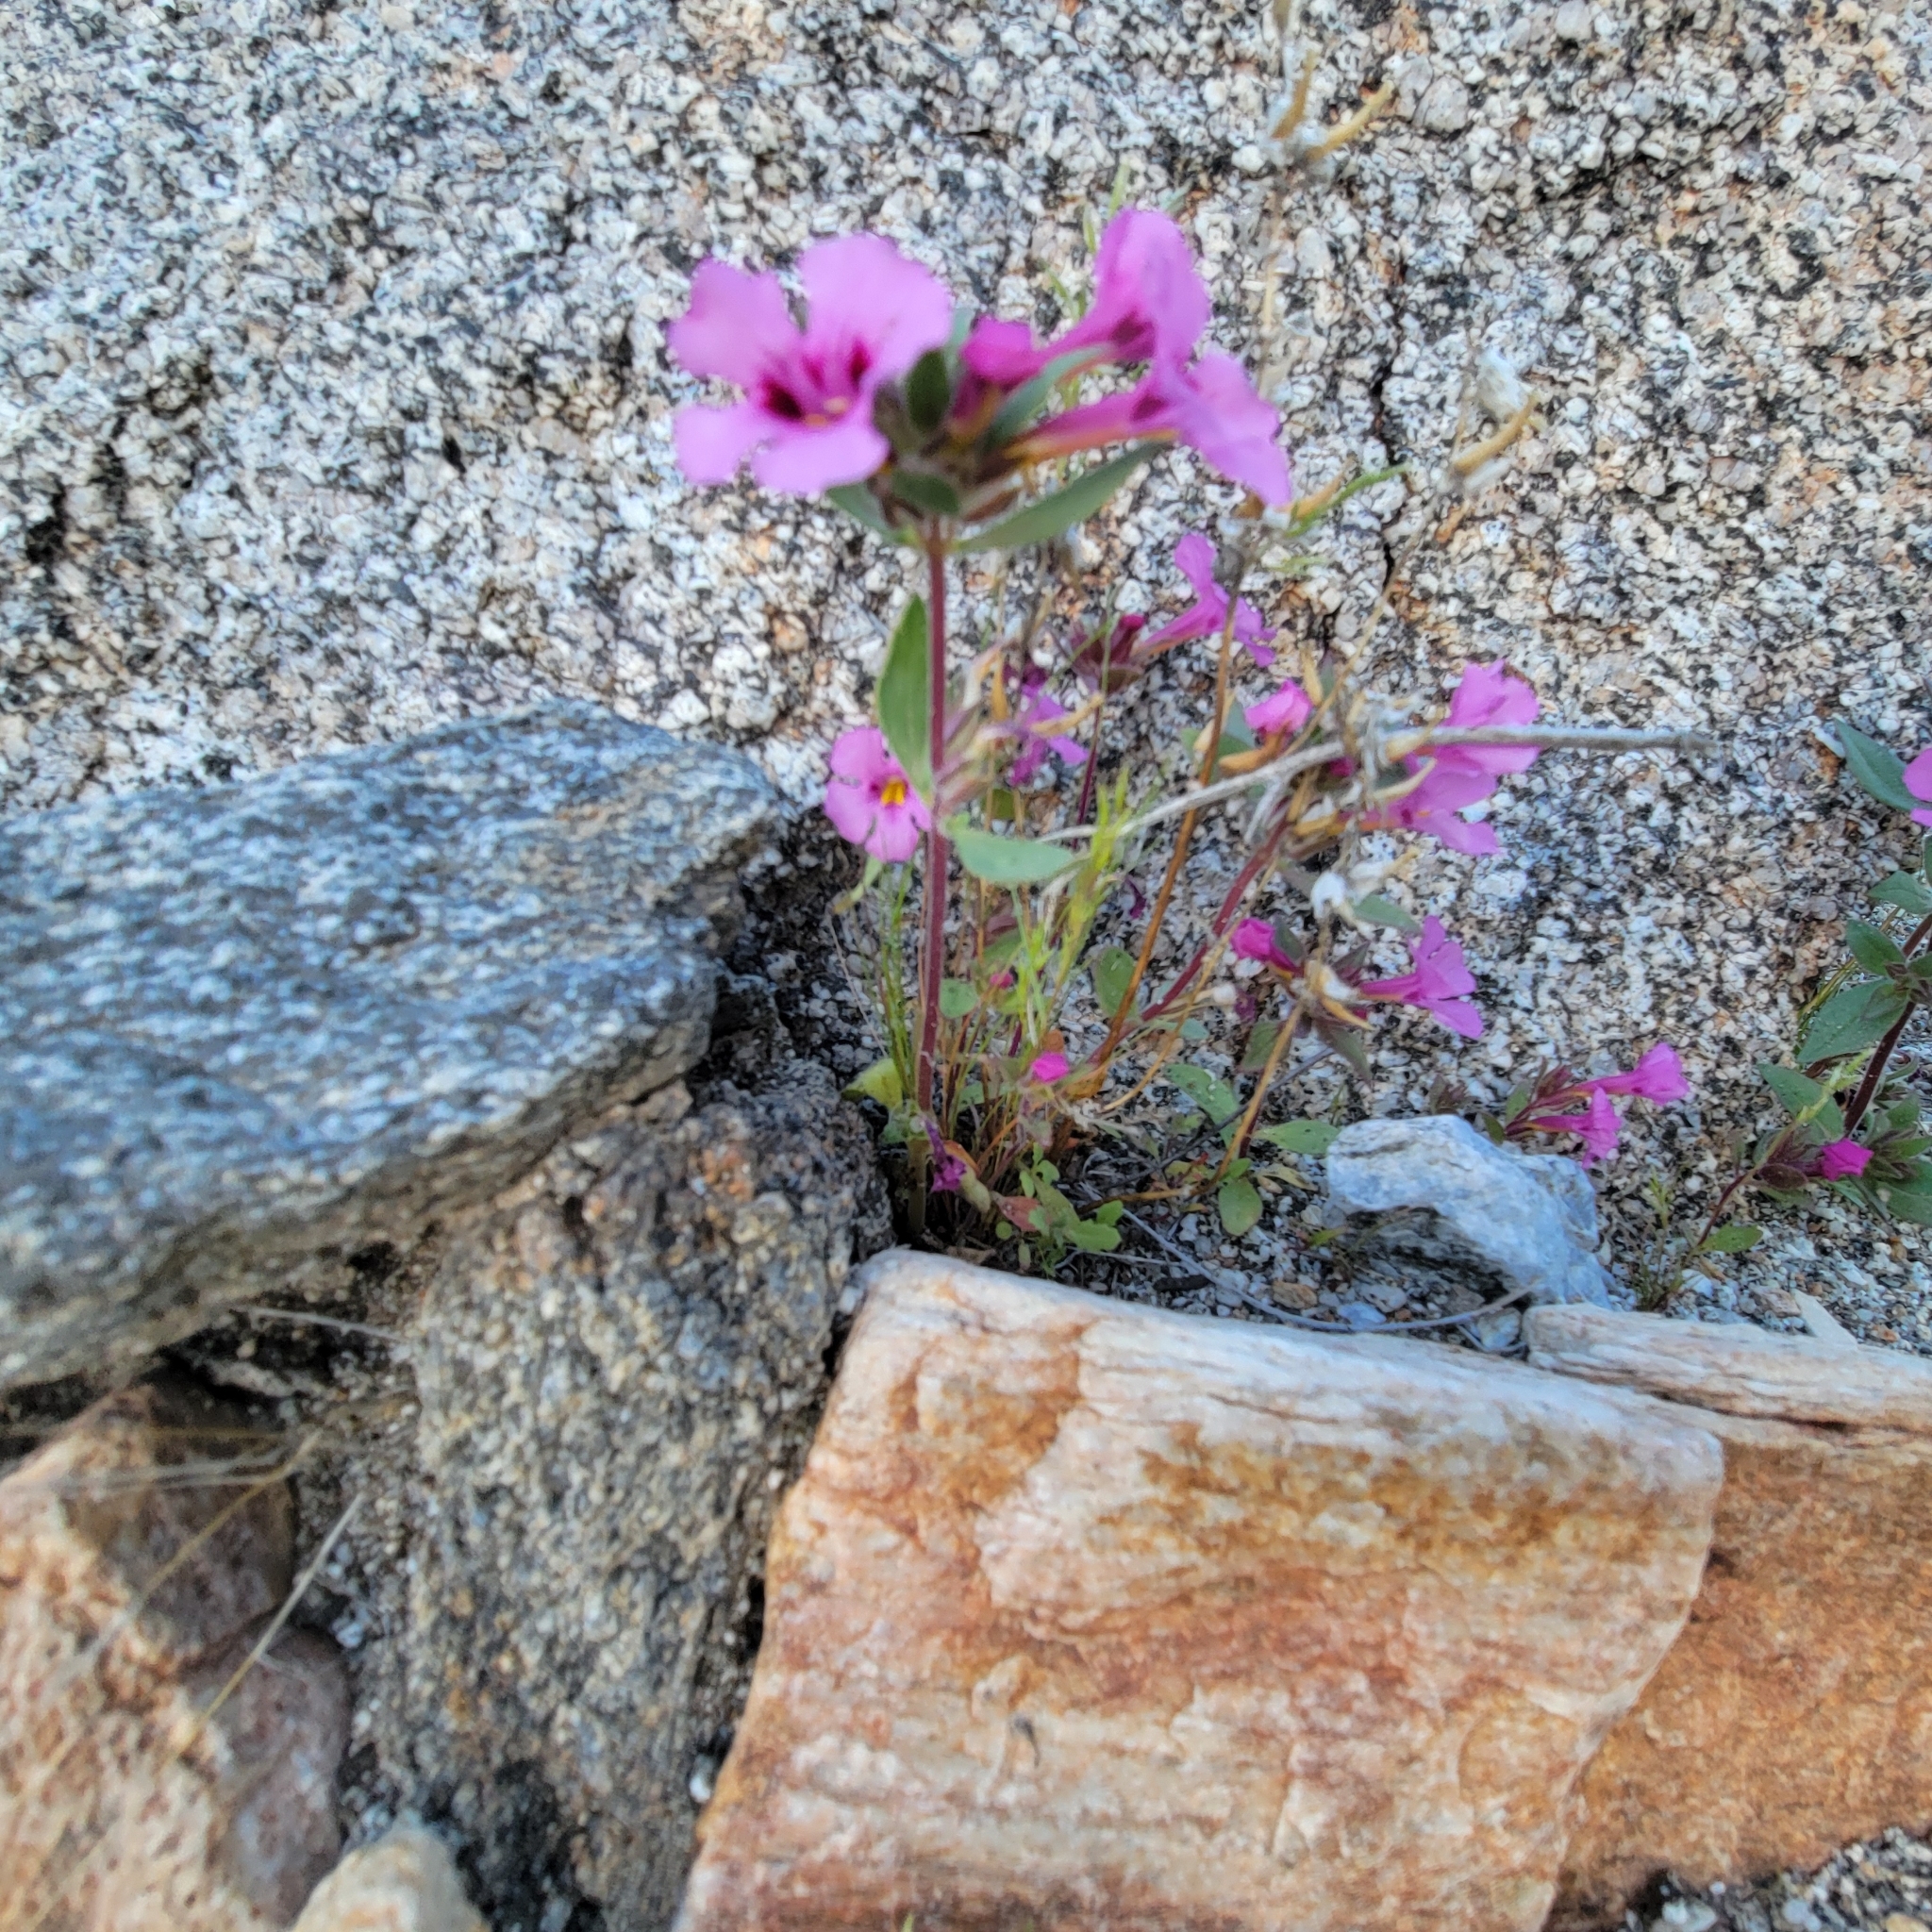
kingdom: Plantae
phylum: Tracheophyta
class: Magnoliopsida
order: Lamiales
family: Phrymaceae
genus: Diplacus
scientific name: Diplacus bigelovii
